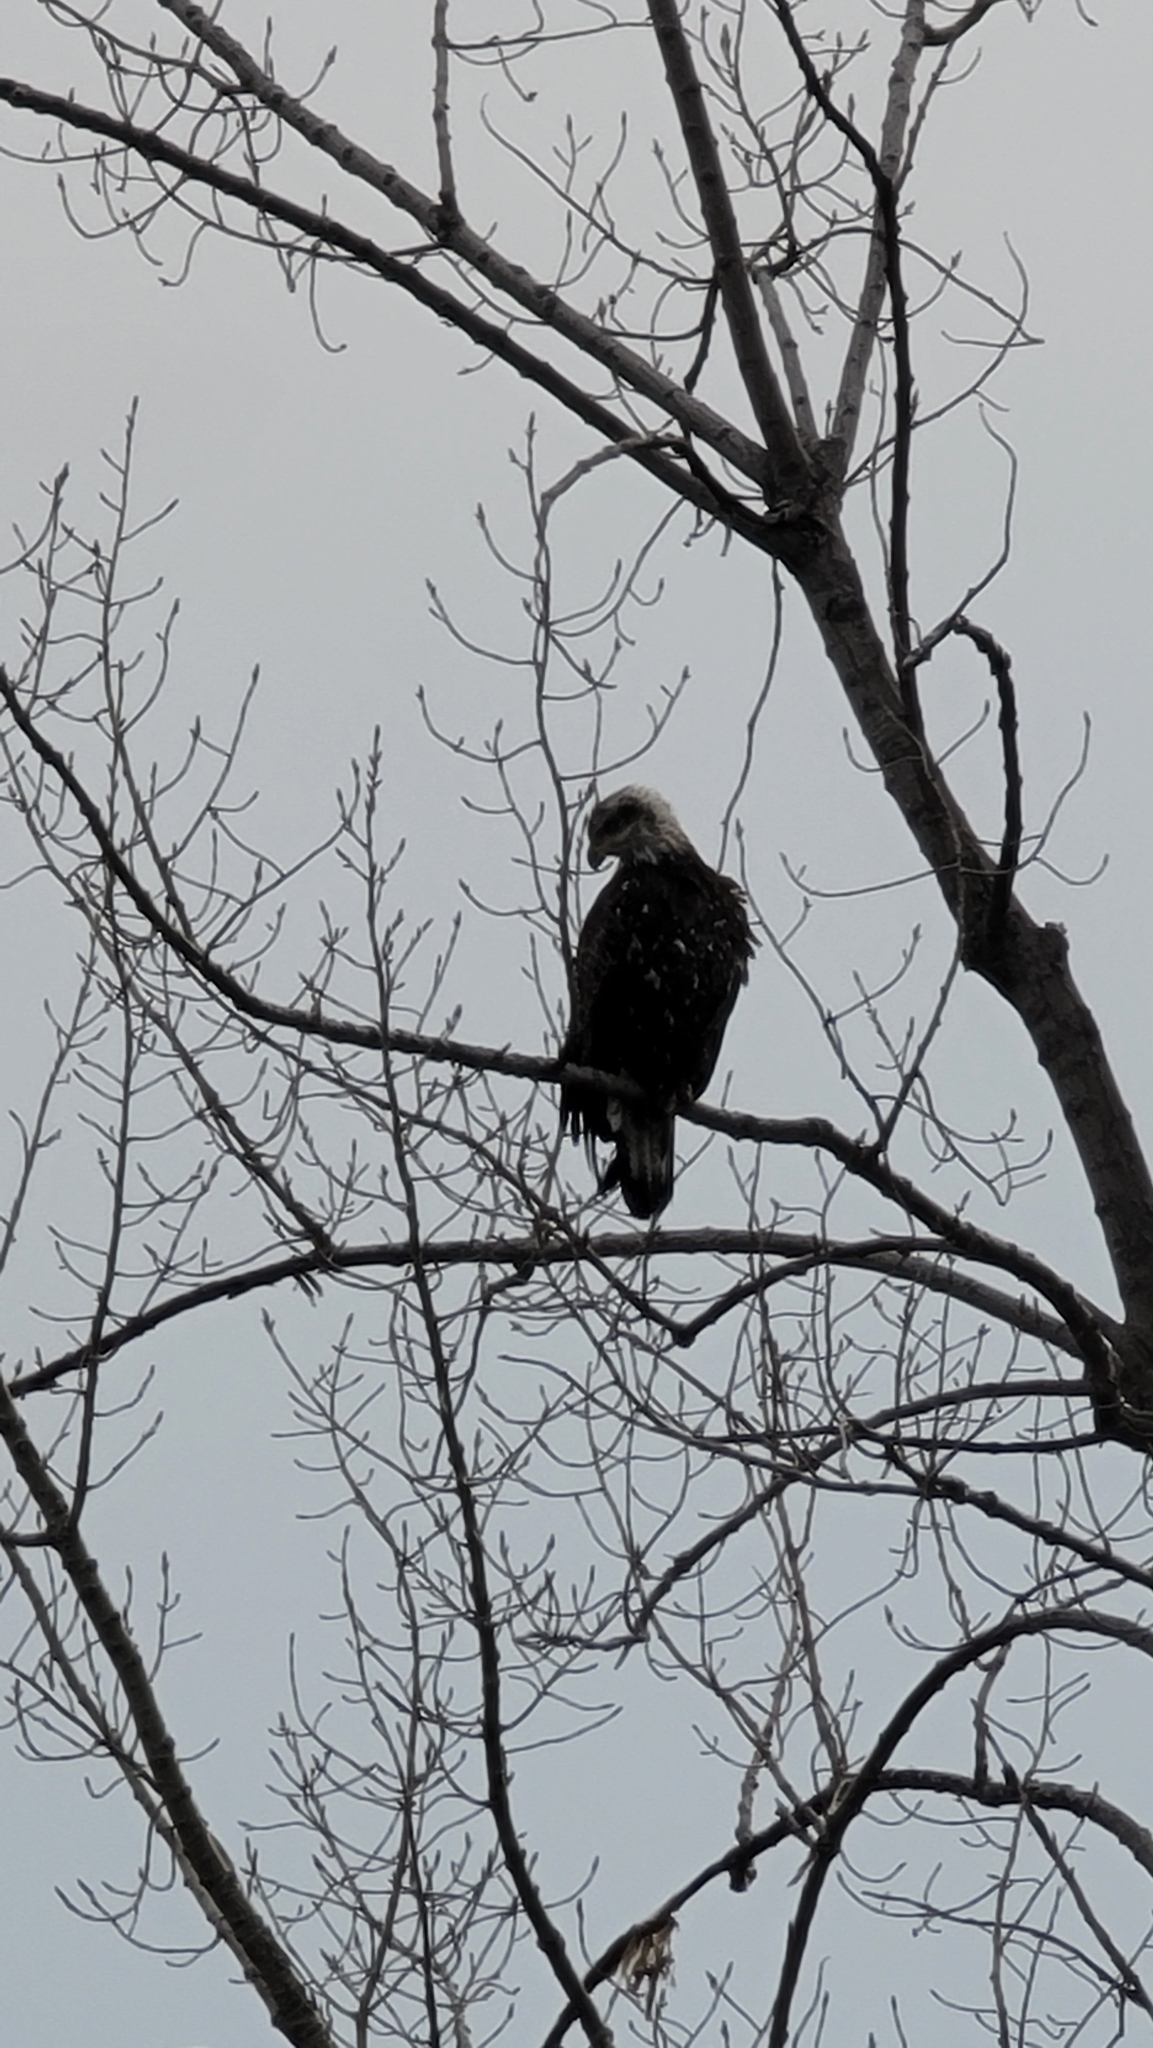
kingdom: Animalia
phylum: Chordata
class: Aves
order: Accipitriformes
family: Accipitridae
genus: Haliaeetus
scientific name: Haliaeetus leucocephalus
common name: Bald eagle
